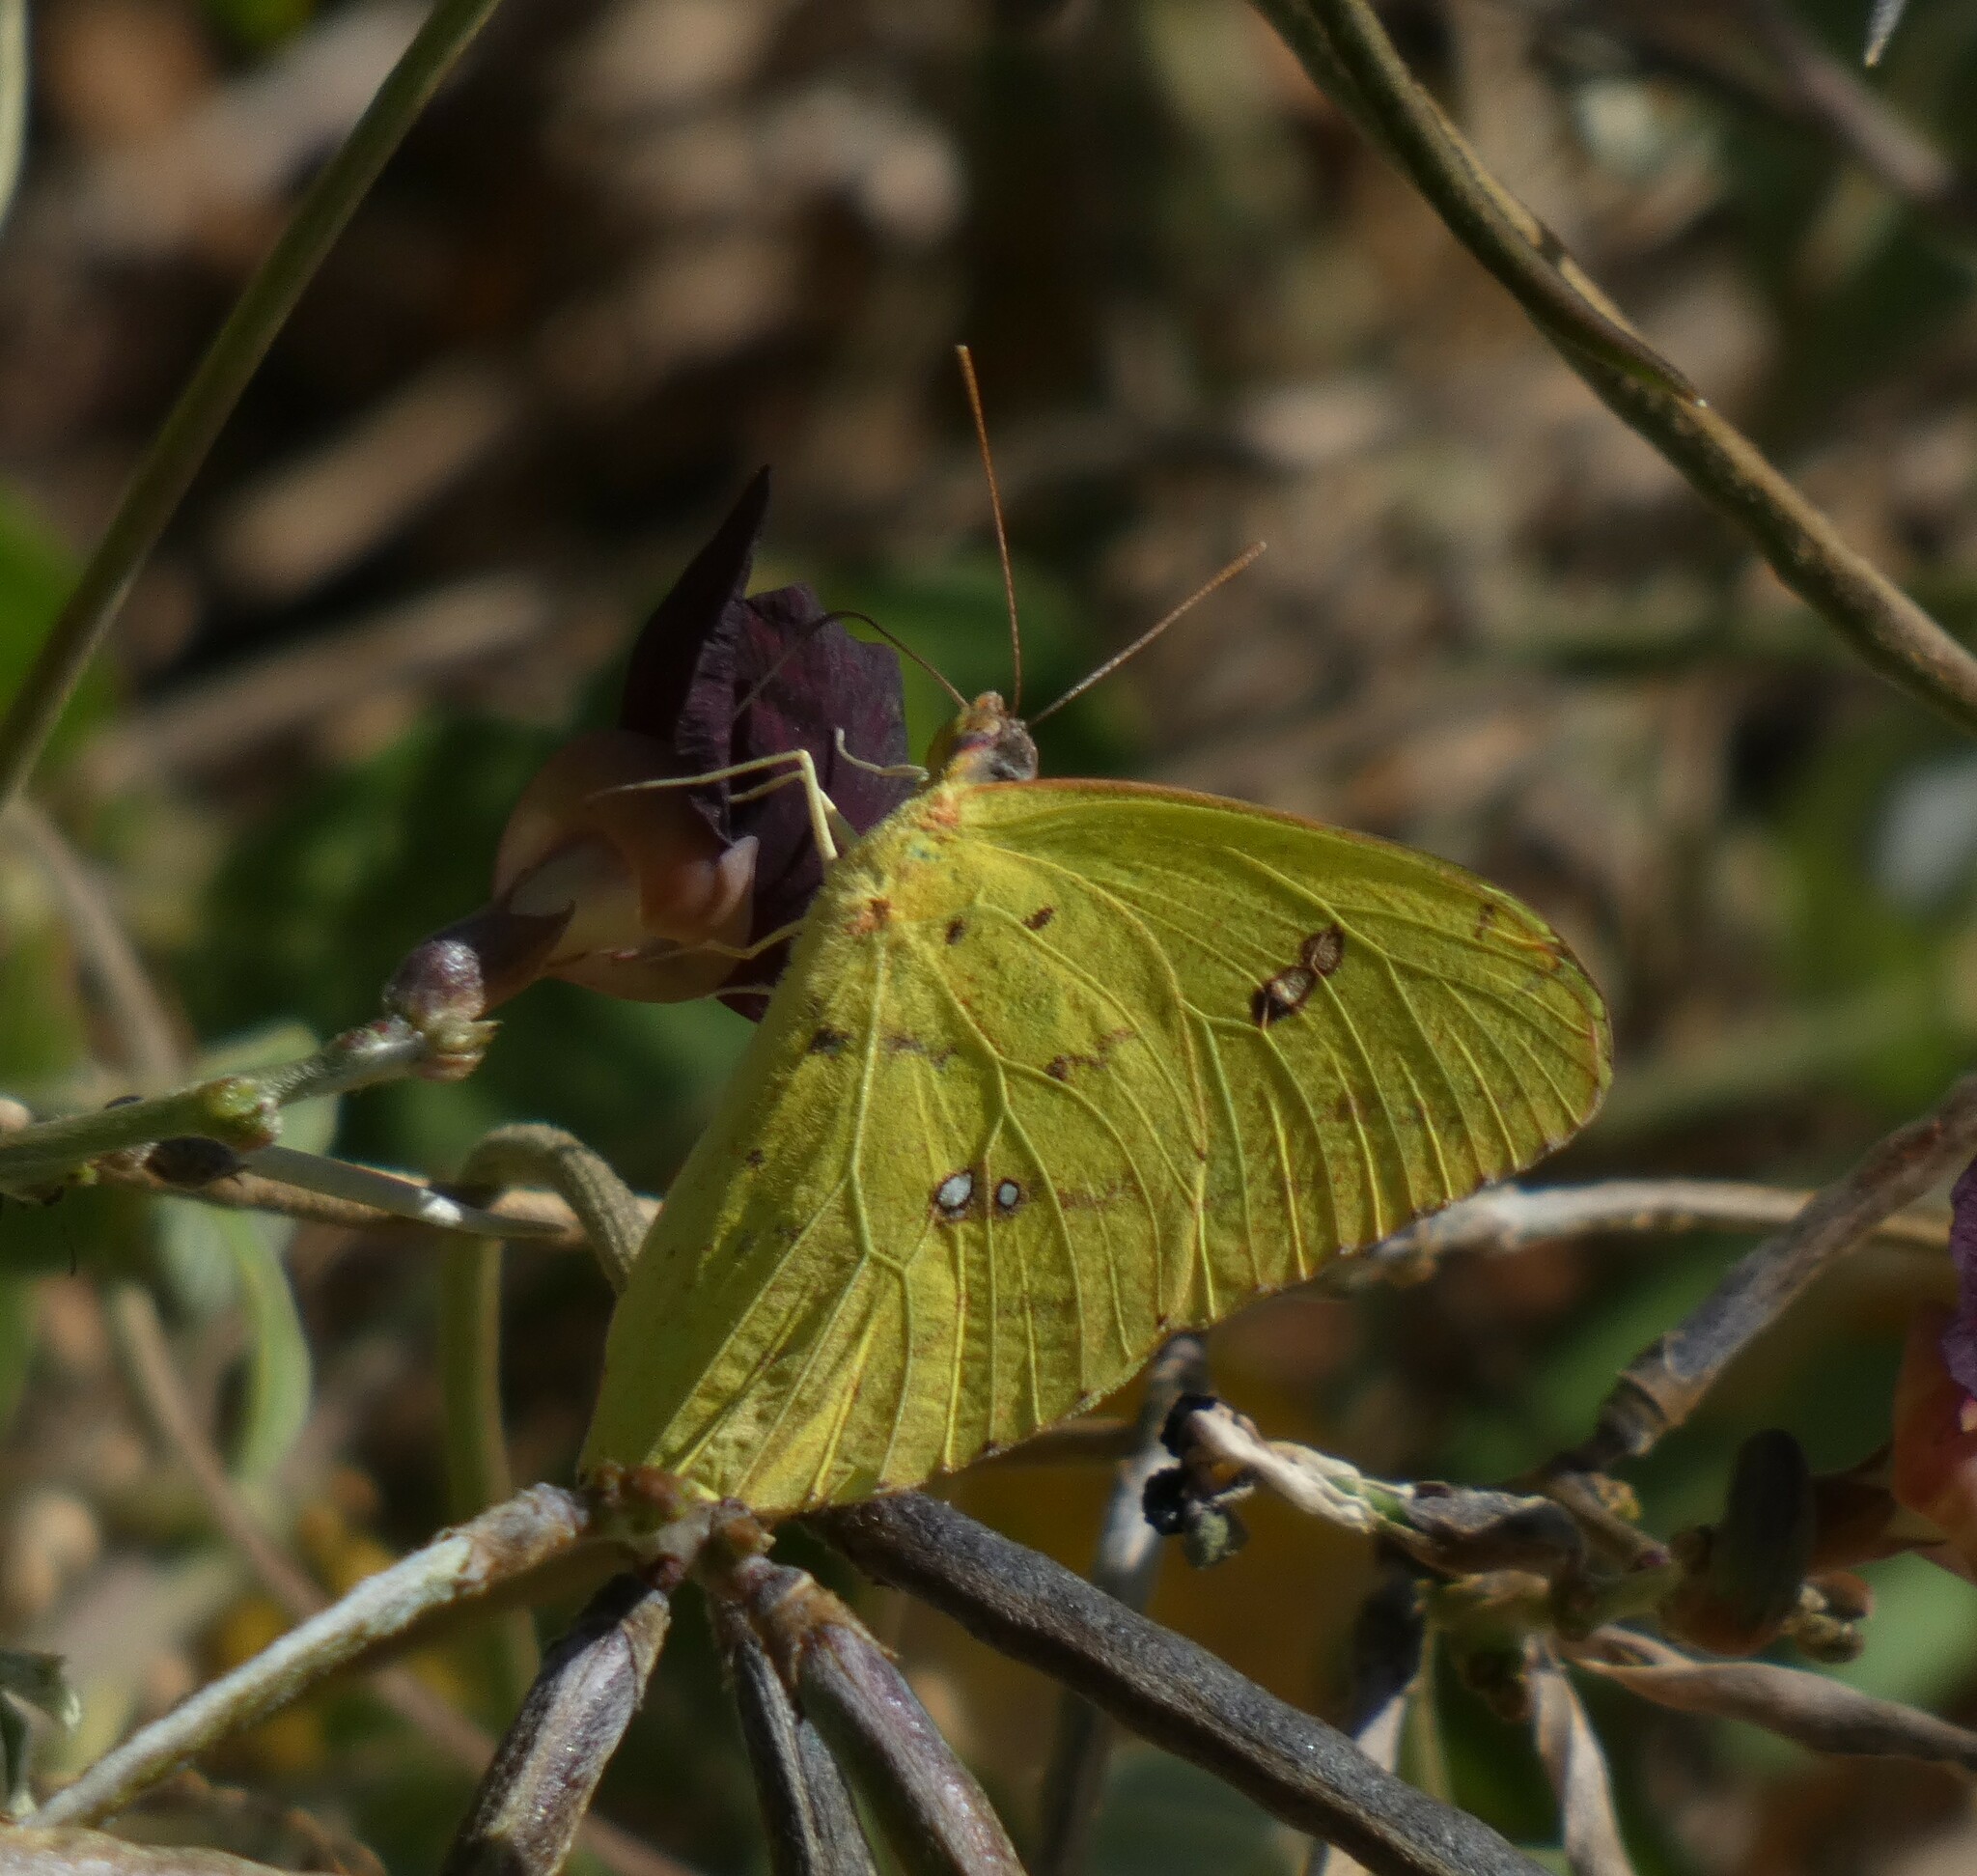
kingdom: Animalia
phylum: Arthropoda
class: Insecta
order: Lepidoptera
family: Pieridae
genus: Phoebis
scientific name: Phoebis marcellina
